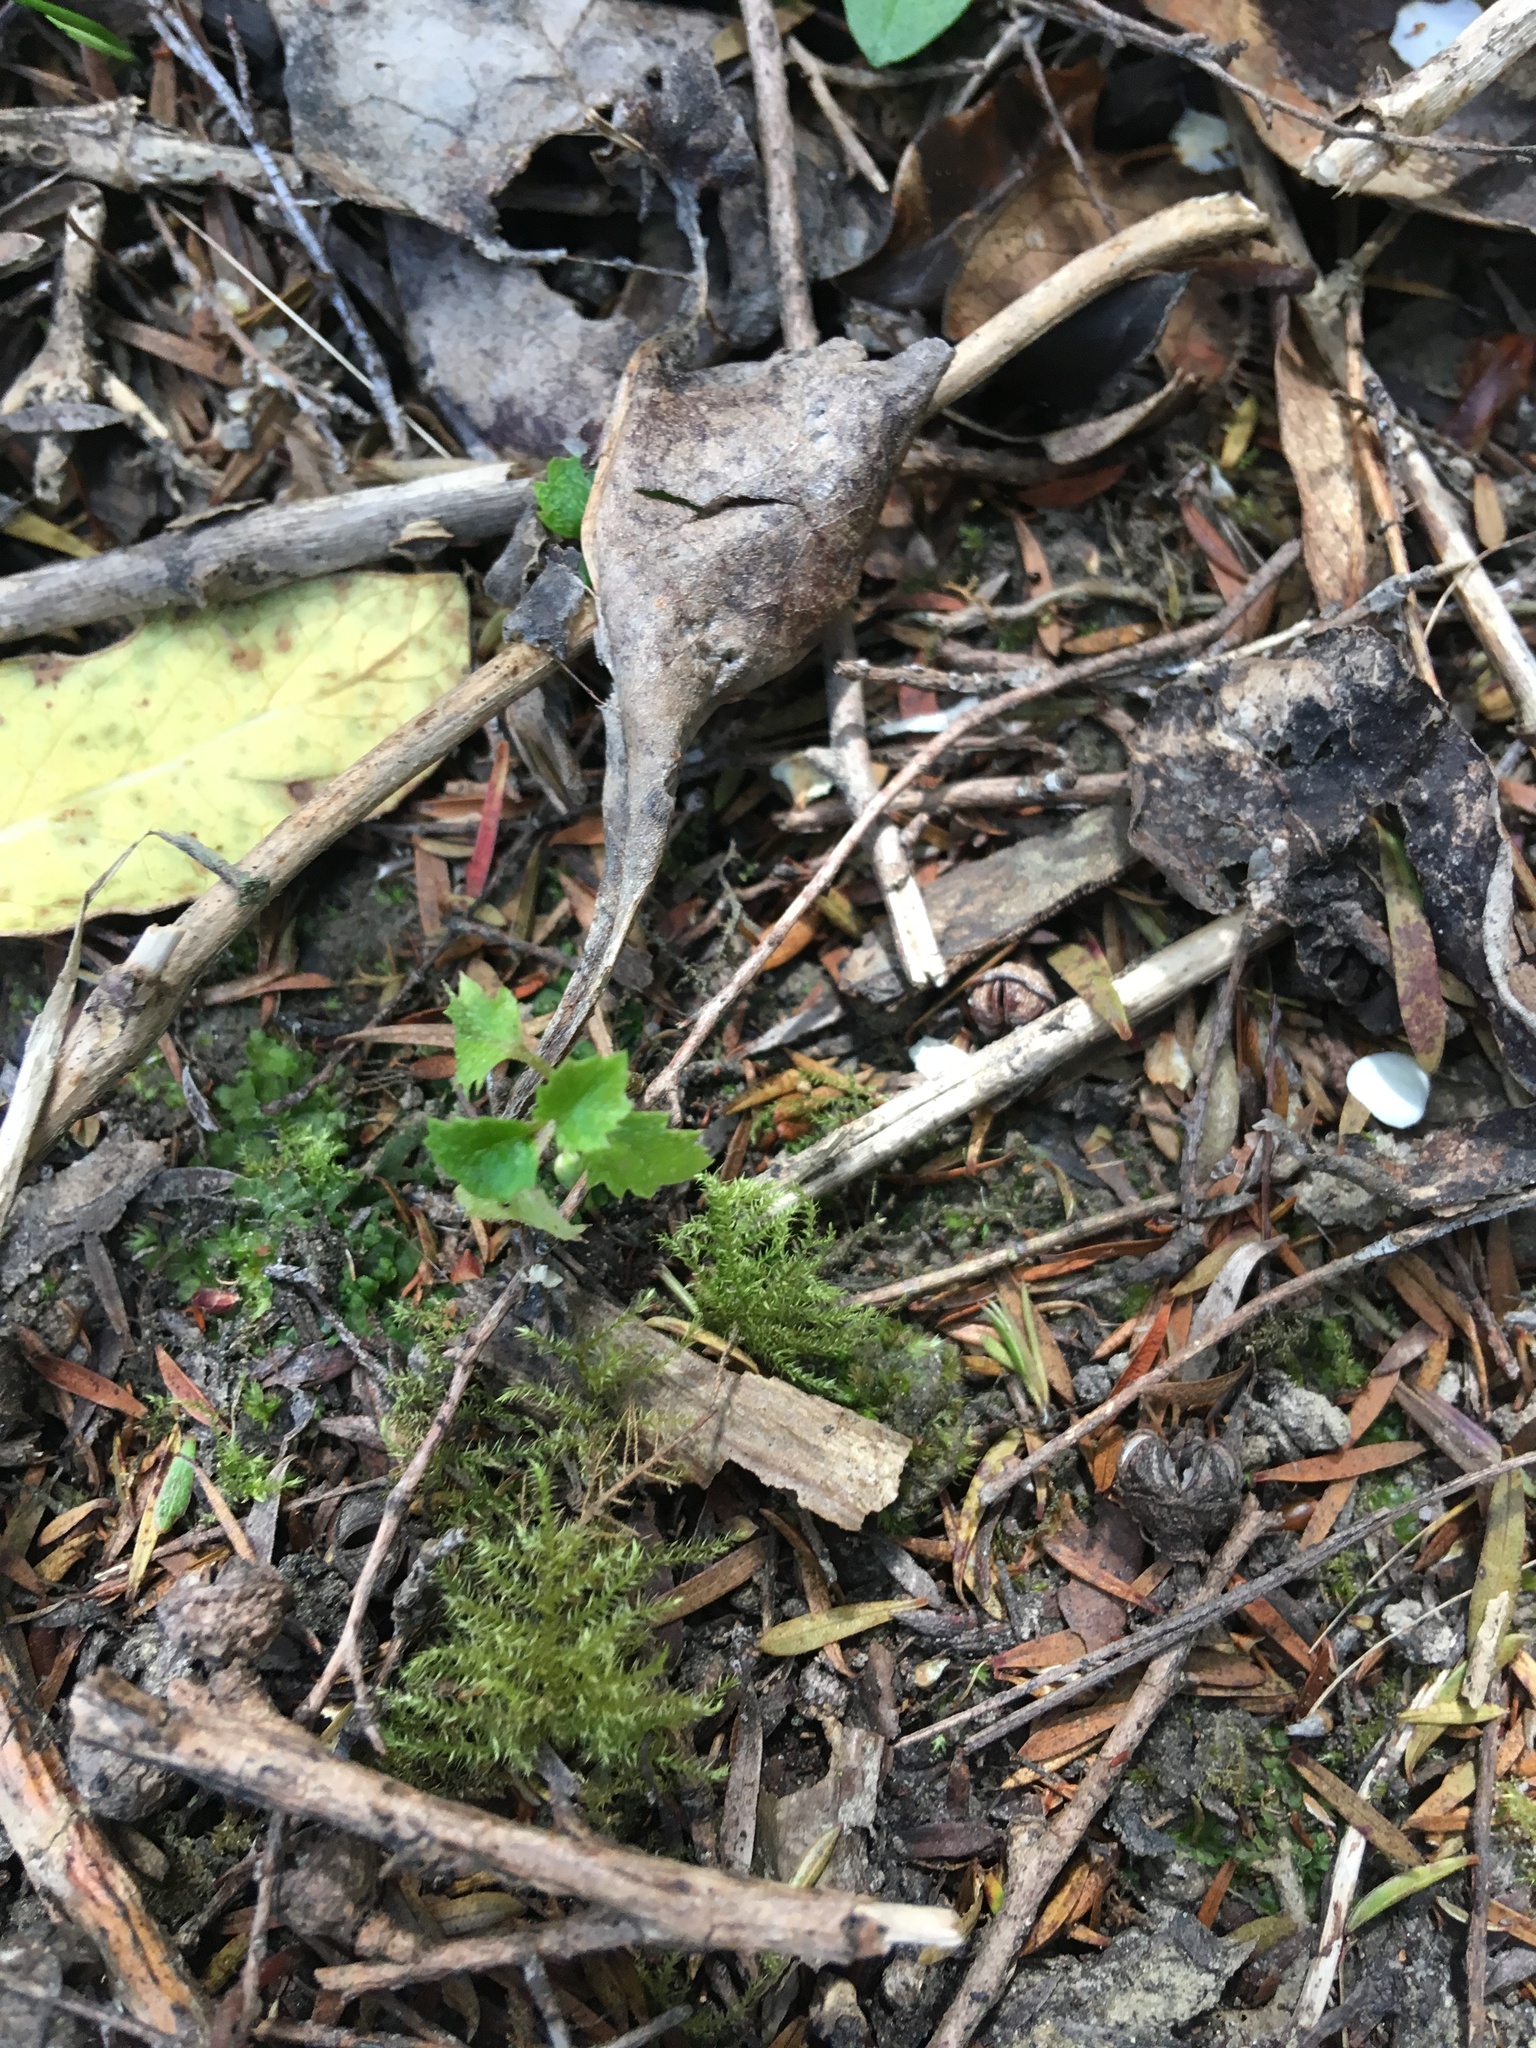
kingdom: Plantae
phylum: Tracheophyta
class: Magnoliopsida
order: Asterales
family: Rousseaceae
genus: Carpodetus
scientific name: Carpodetus serratus
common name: White mapau
